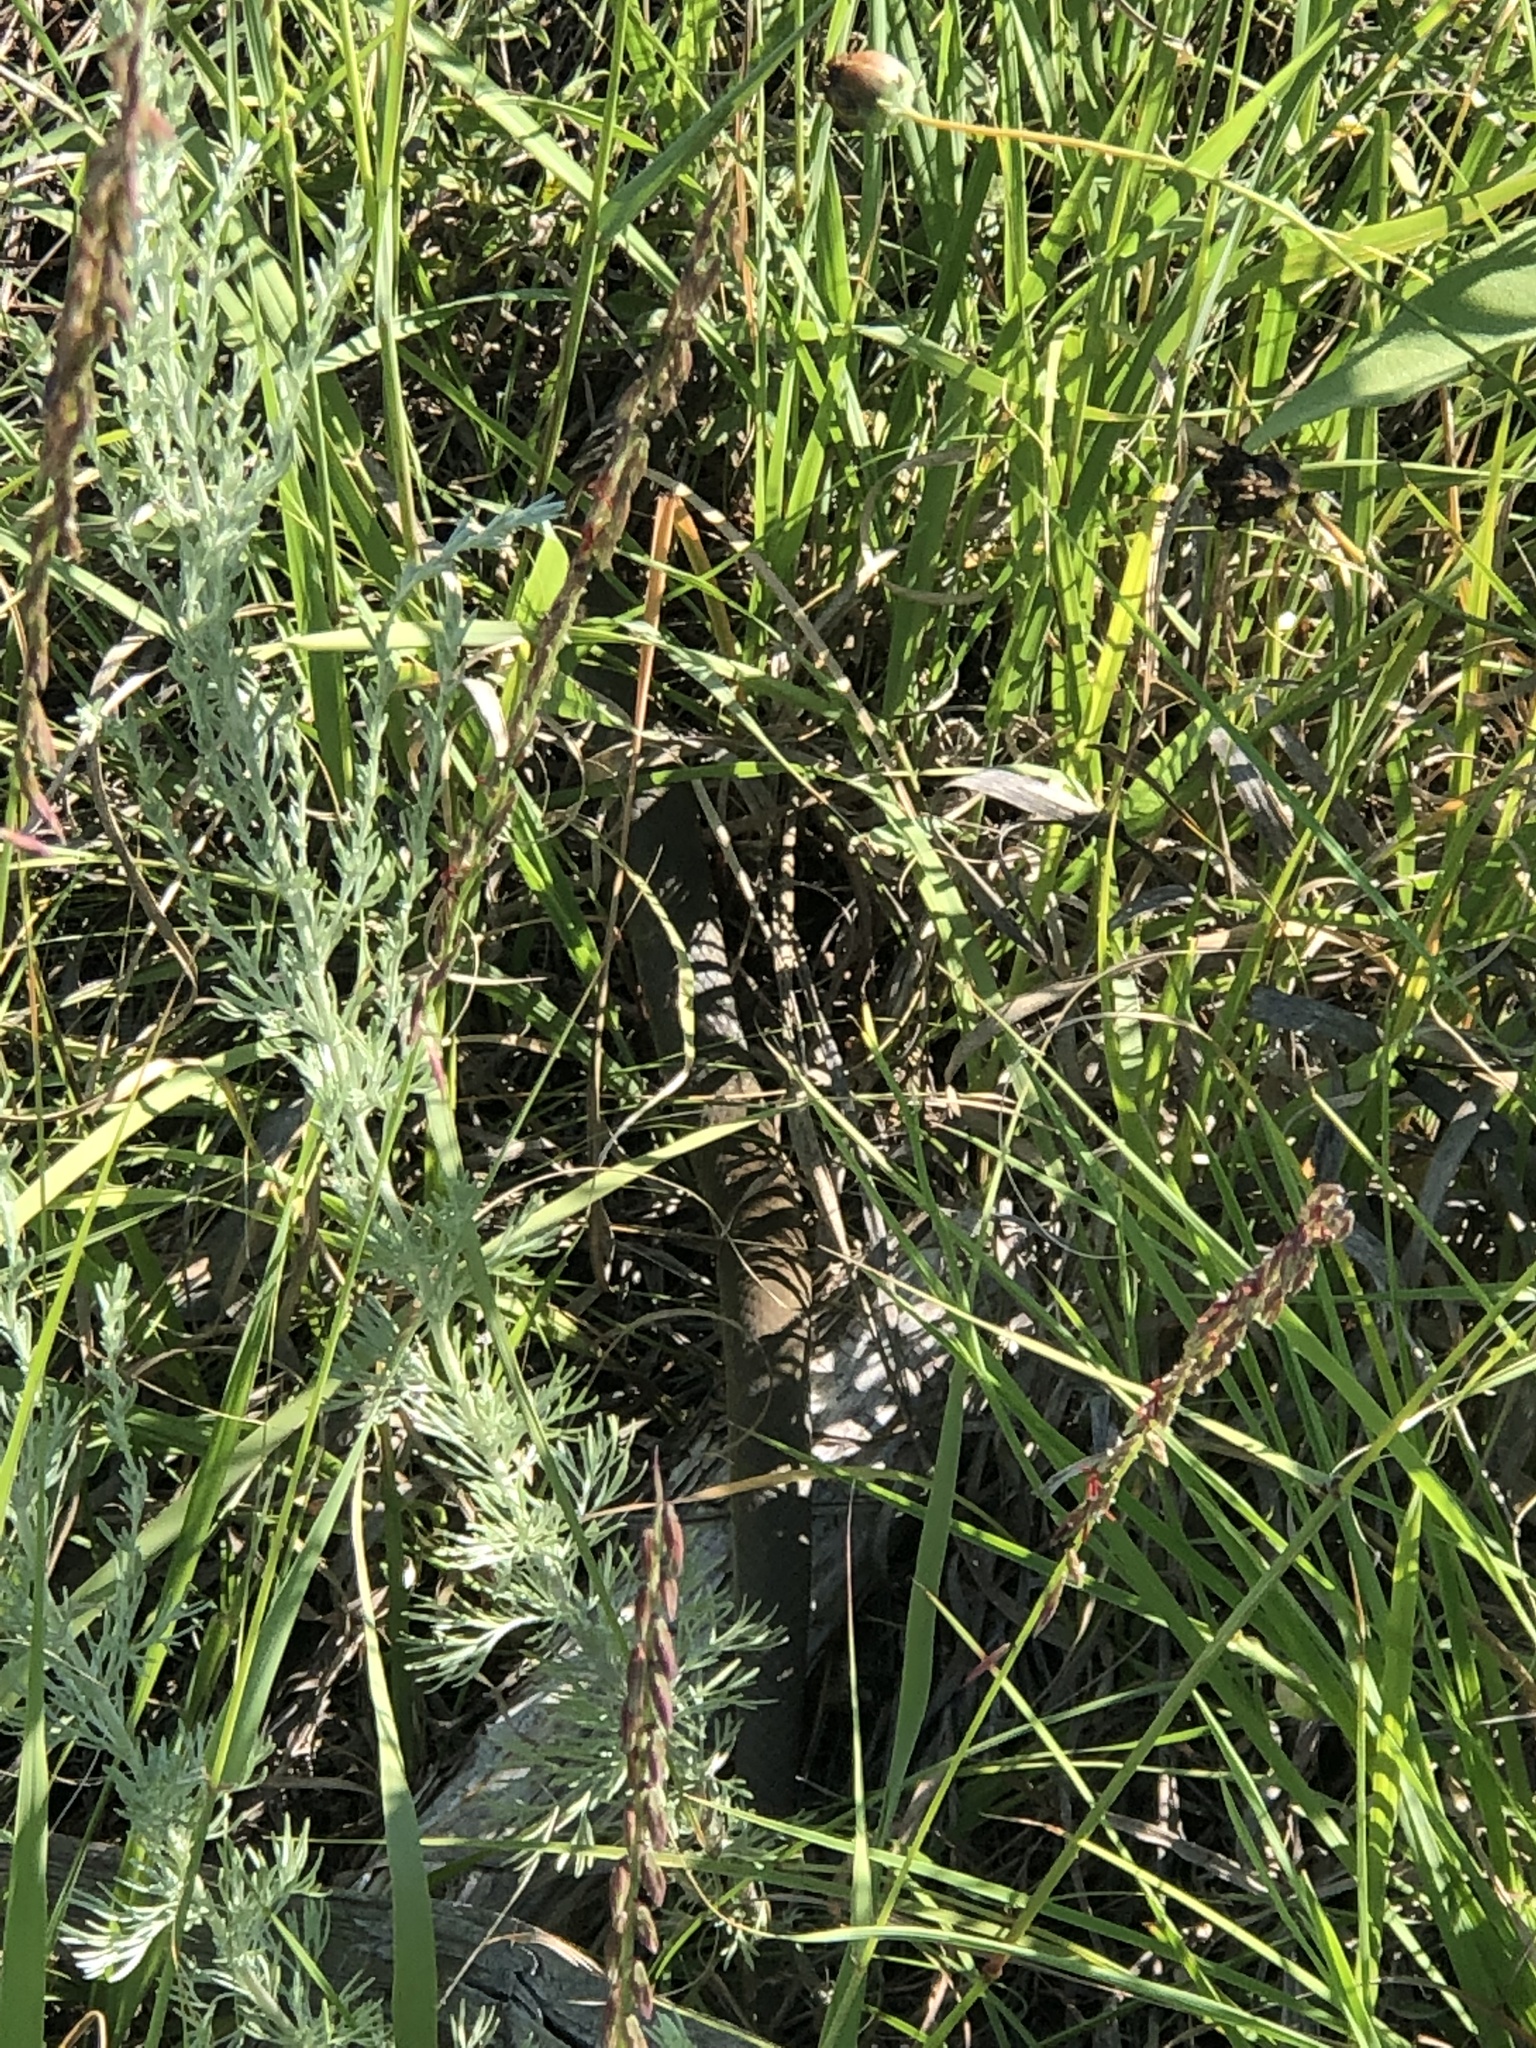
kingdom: Animalia
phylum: Chordata
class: Squamata
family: Colubridae
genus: Coluber
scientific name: Coluber constrictor
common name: Eastern racer
